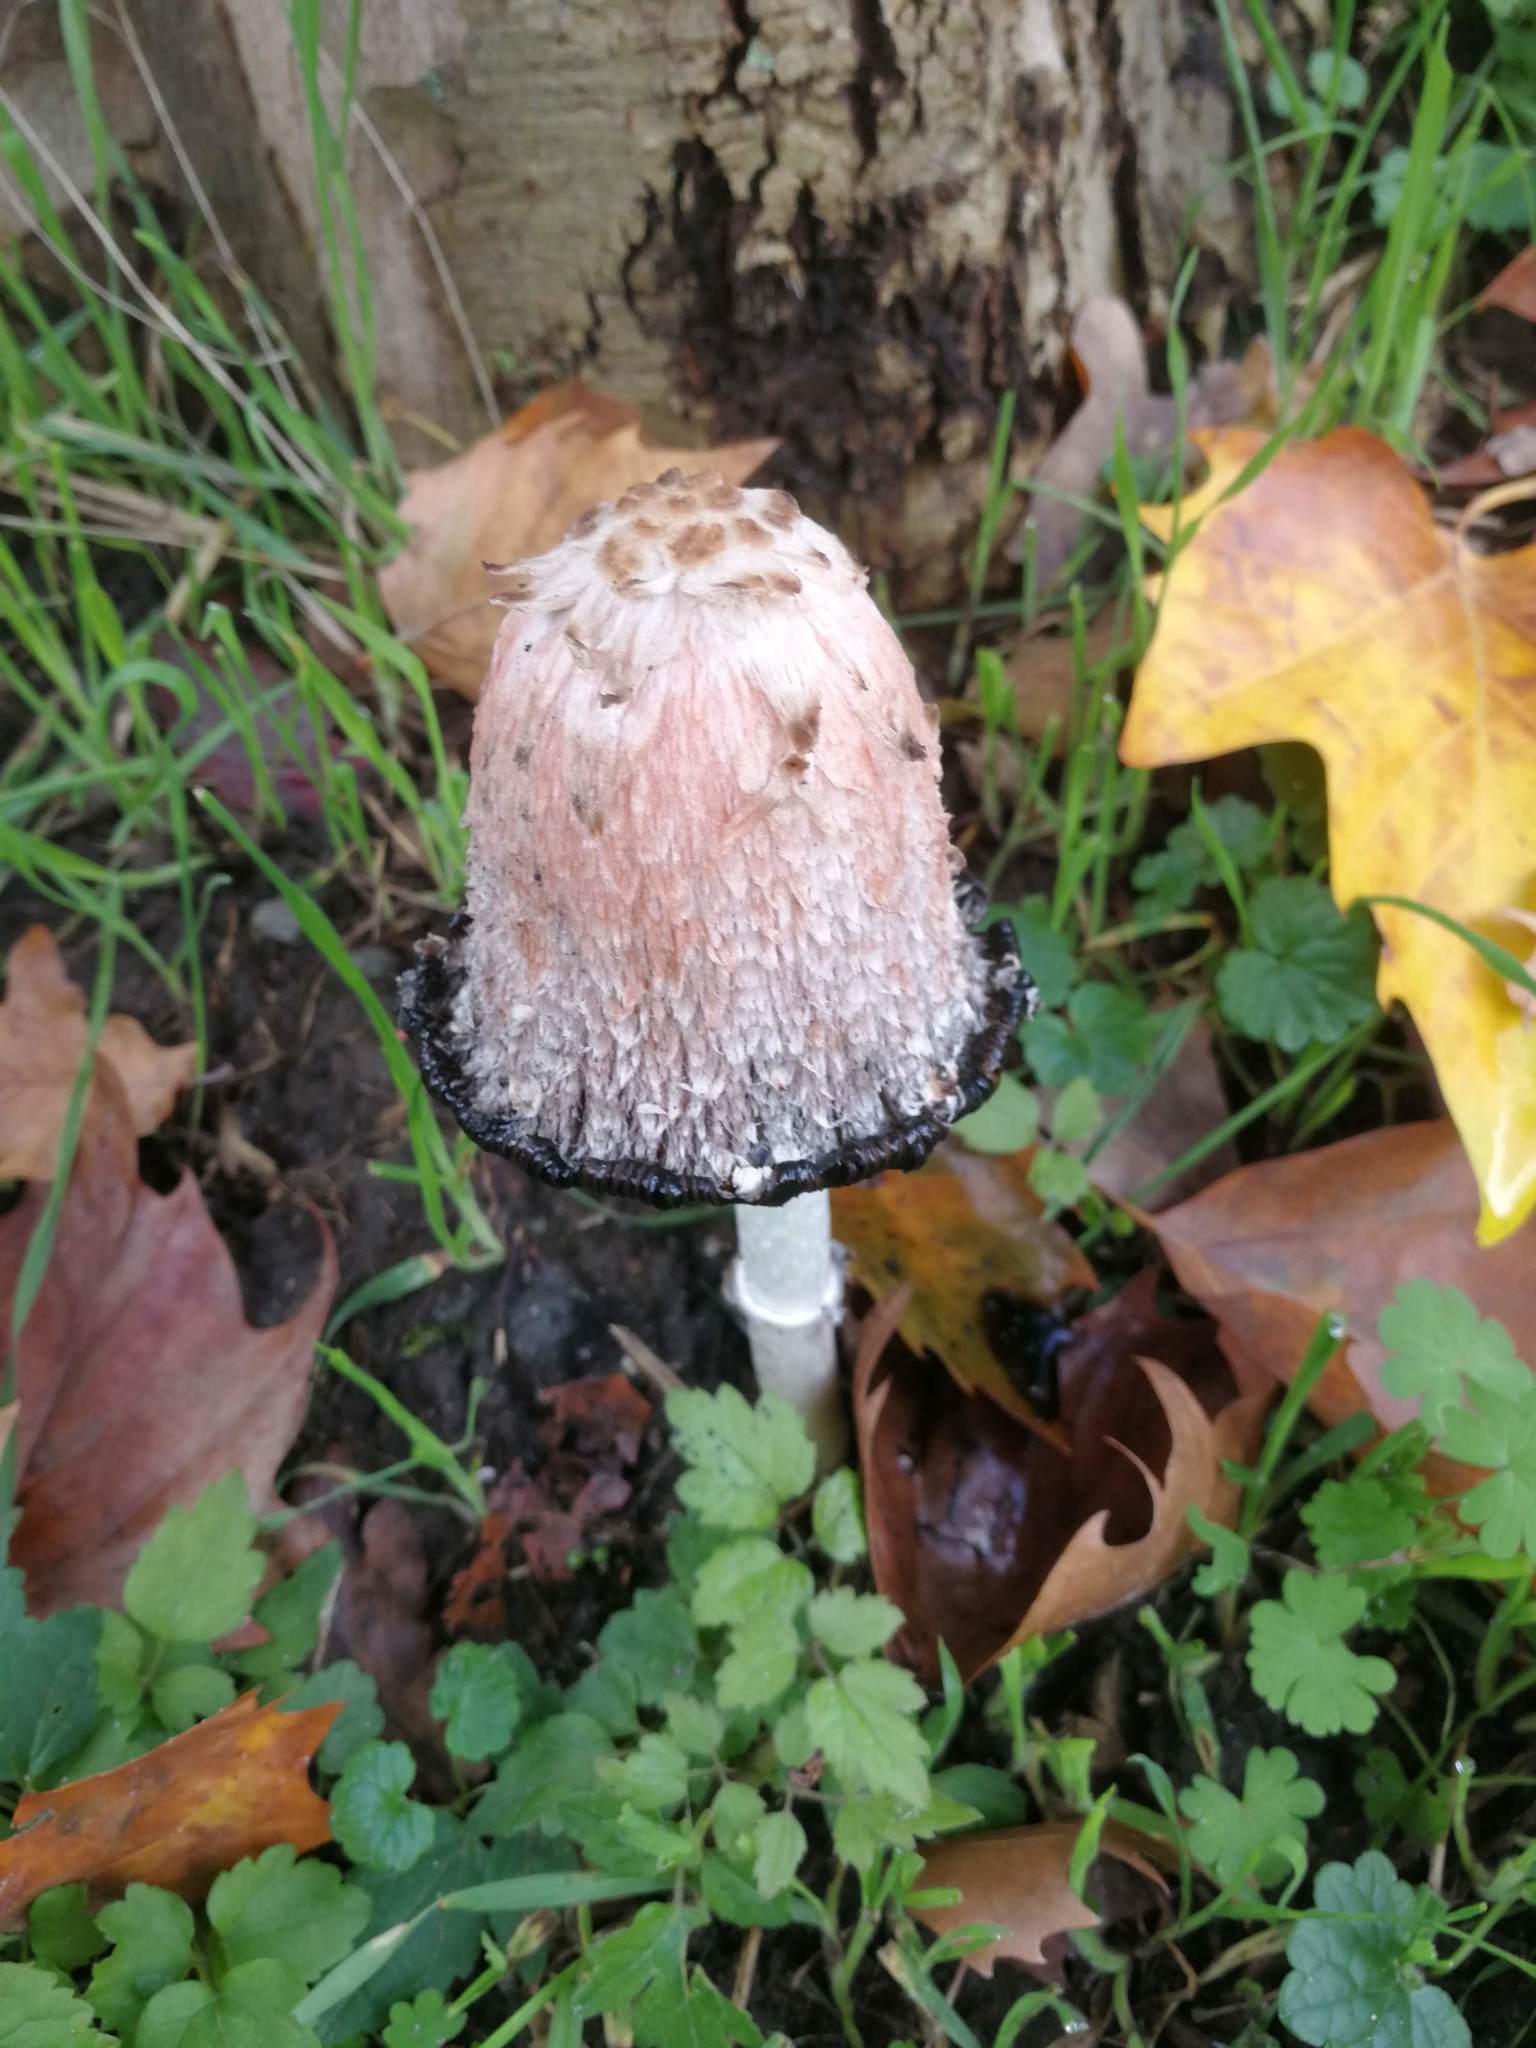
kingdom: Fungi
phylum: Basidiomycota
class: Agaricomycetes
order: Agaricales
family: Agaricaceae
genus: Coprinus
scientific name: Coprinus comatus
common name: Lawyer's wig
